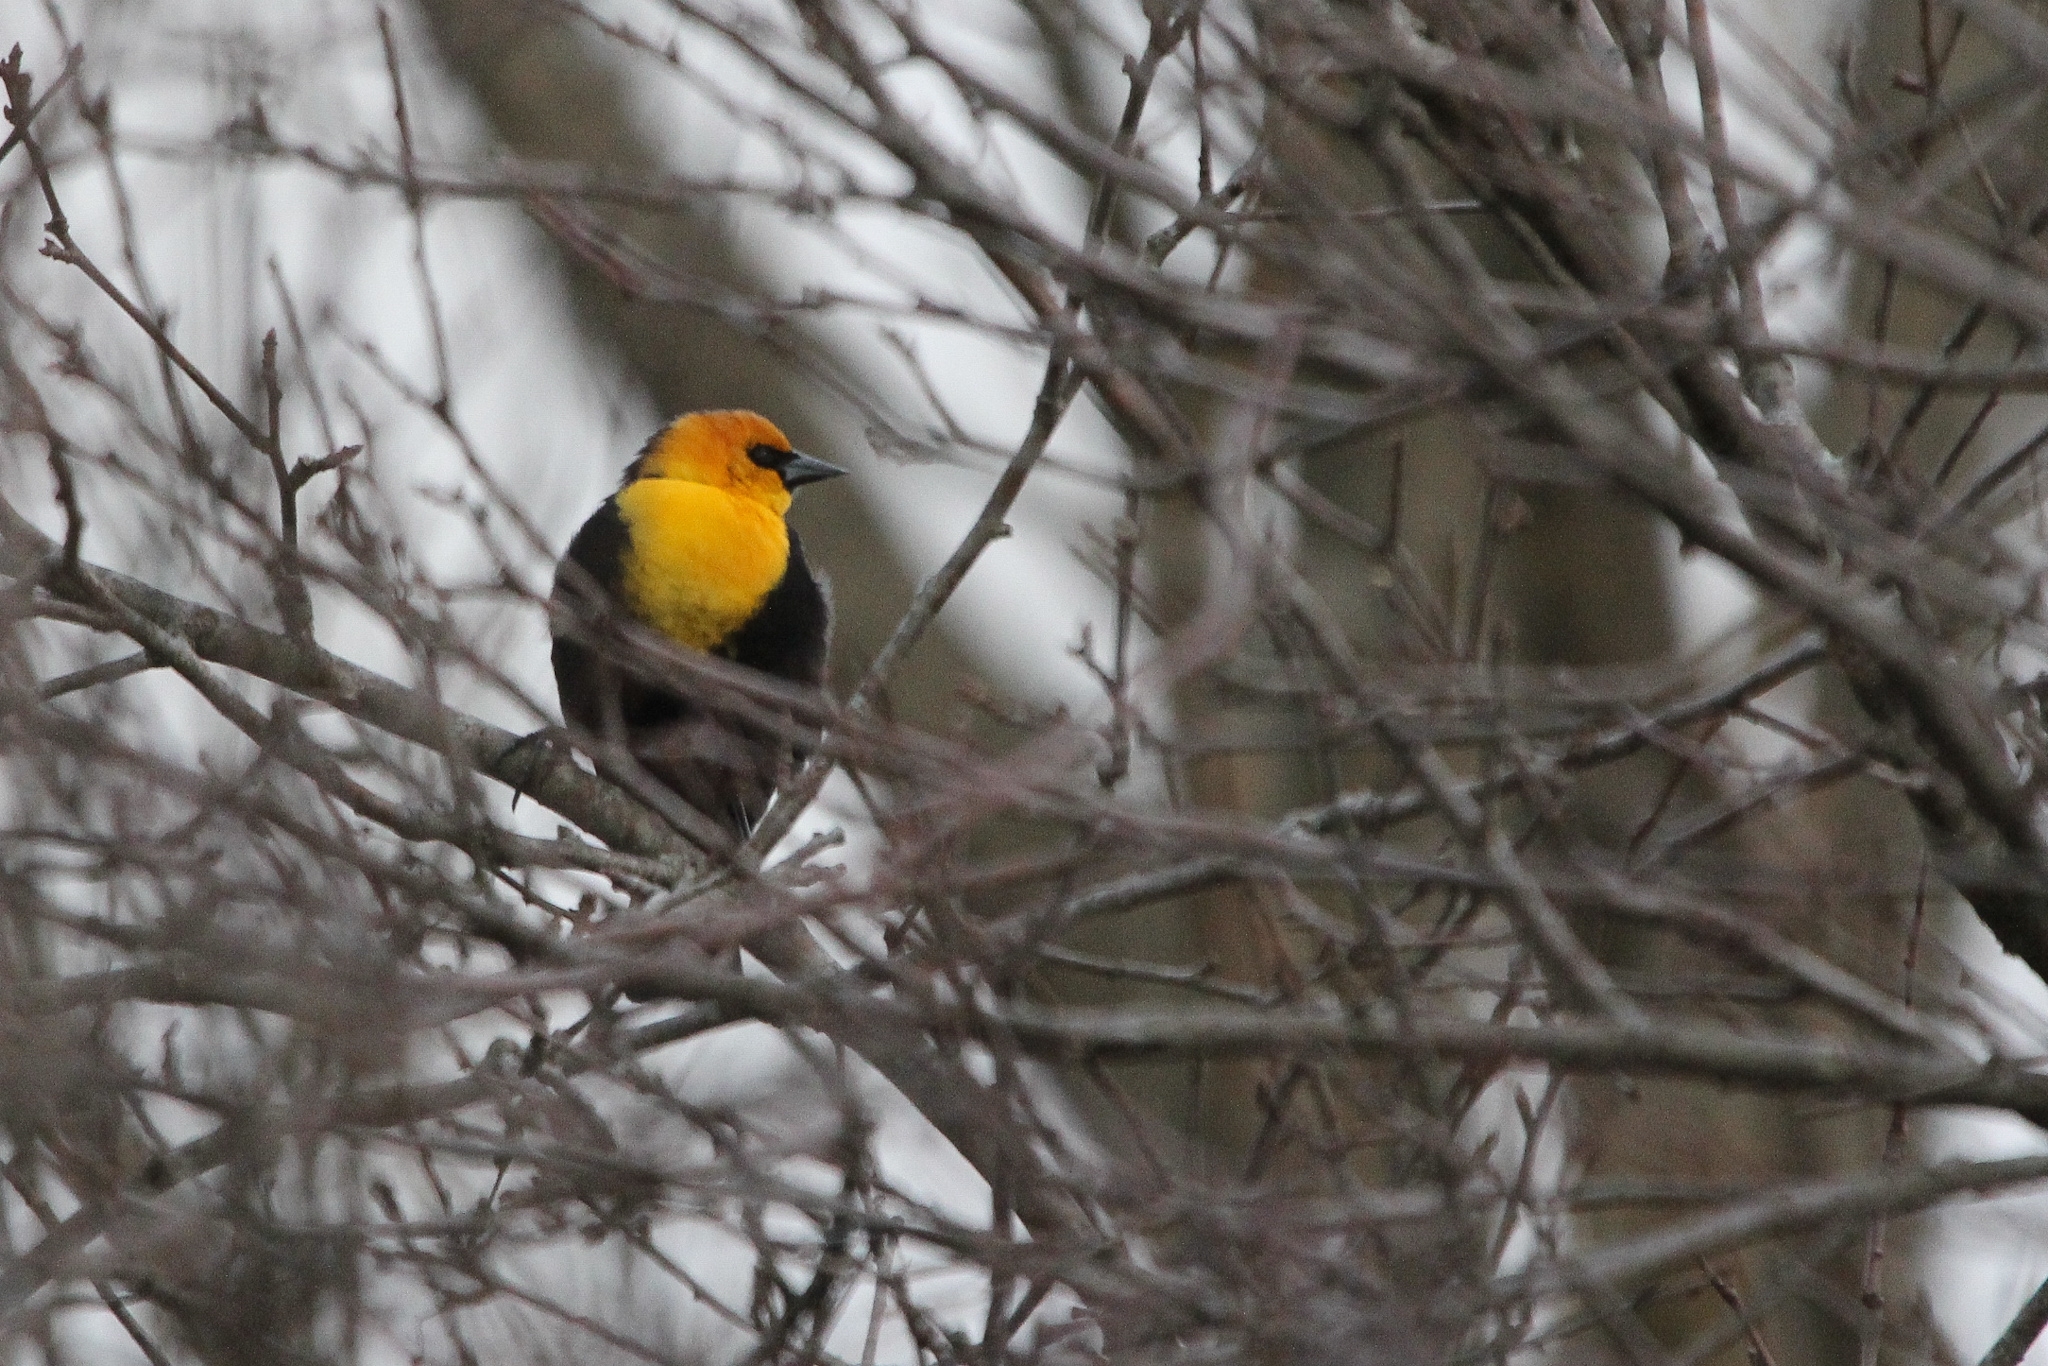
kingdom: Animalia
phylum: Chordata
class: Aves
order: Passeriformes
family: Icteridae
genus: Xanthocephalus
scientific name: Xanthocephalus xanthocephalus
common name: Yellow-headed blackbird
